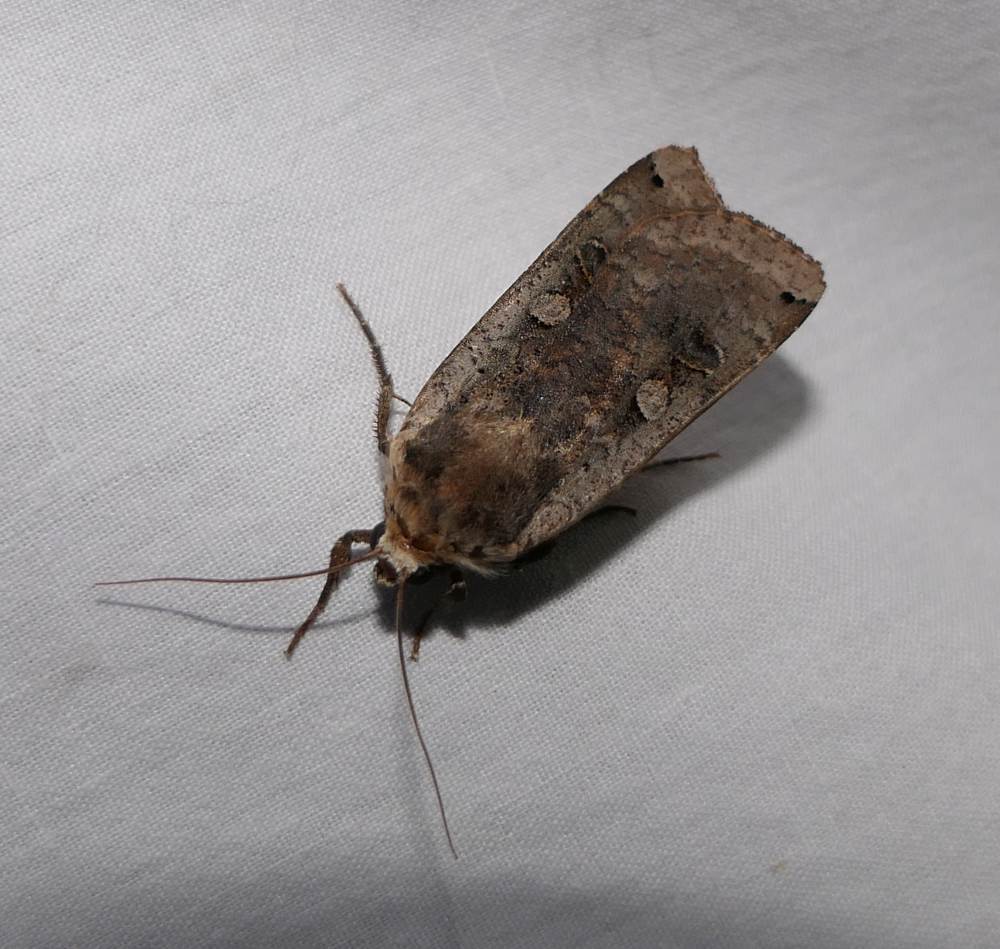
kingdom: Animalia
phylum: Arthropoda
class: Insecta
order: Lepidoptera
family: Noctuidae
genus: Noctua
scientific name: Noctua pronuba
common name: Large yellow underwing
